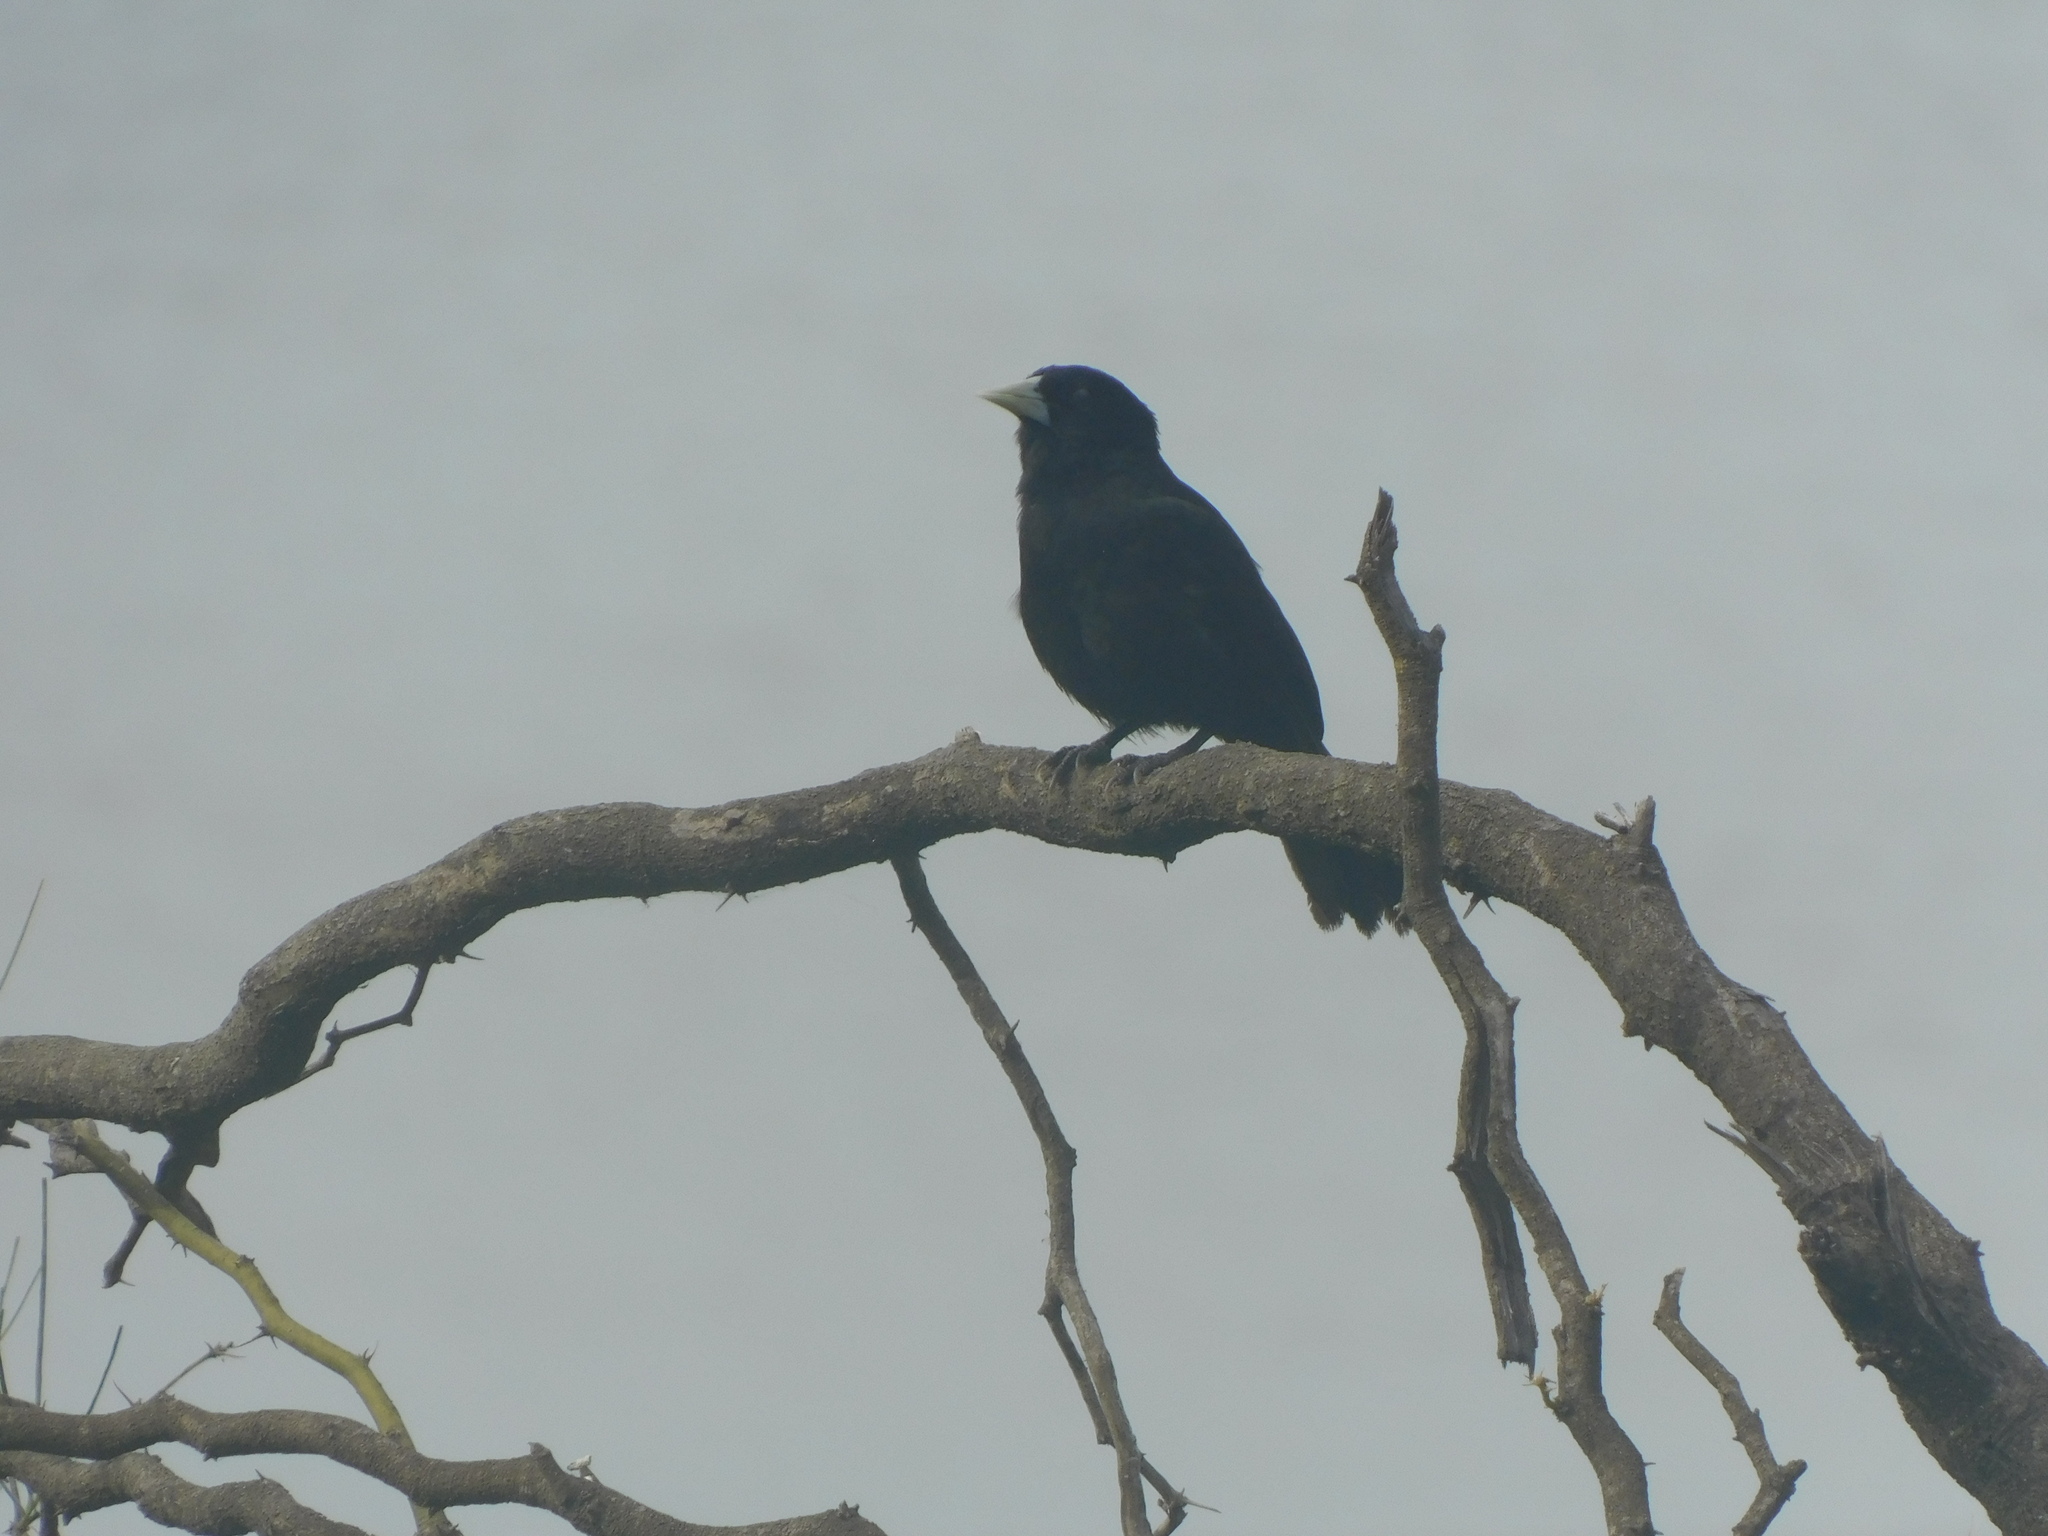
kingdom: Animalia
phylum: Chordata
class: Aves
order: Passeriformes
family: Icteridae
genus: Cacicus
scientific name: Cacicus solitarius
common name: Solitary cacique
